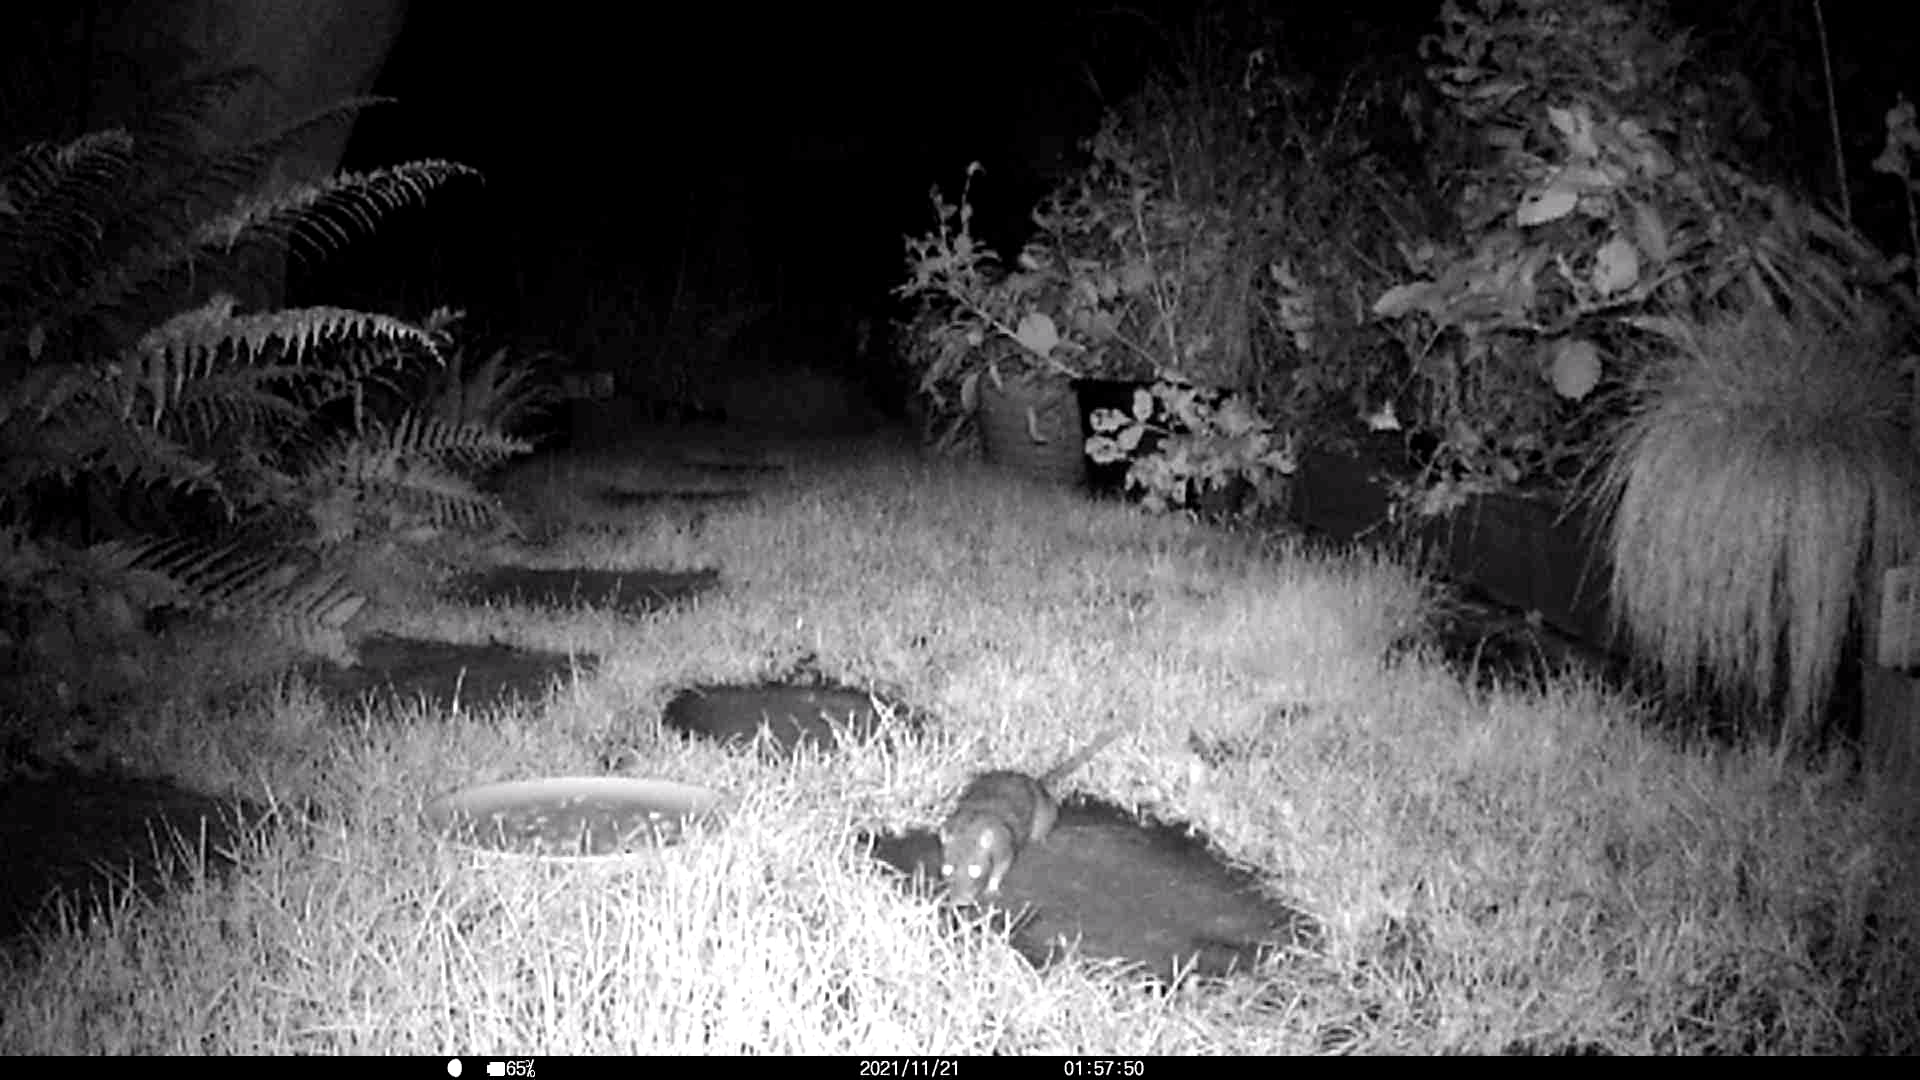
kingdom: Animalia
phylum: Chordata
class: Mammalia
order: Rodentia
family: Muridae
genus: Rattus
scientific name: Rattus norvegicus
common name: Brown rat
